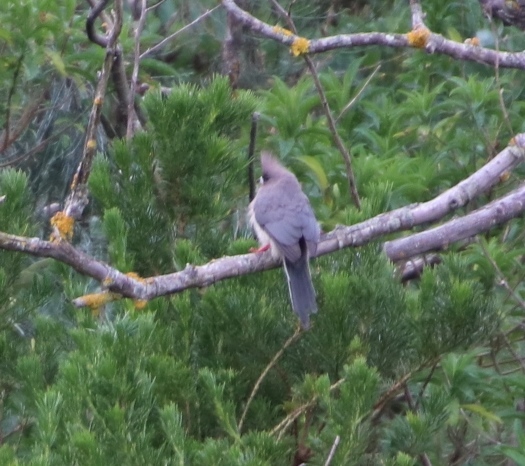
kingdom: Animalia
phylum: Chordata
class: Aves
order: Coliiformes
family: Coliidae
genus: Colius
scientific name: Colius colius
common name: White-backed mousebird
